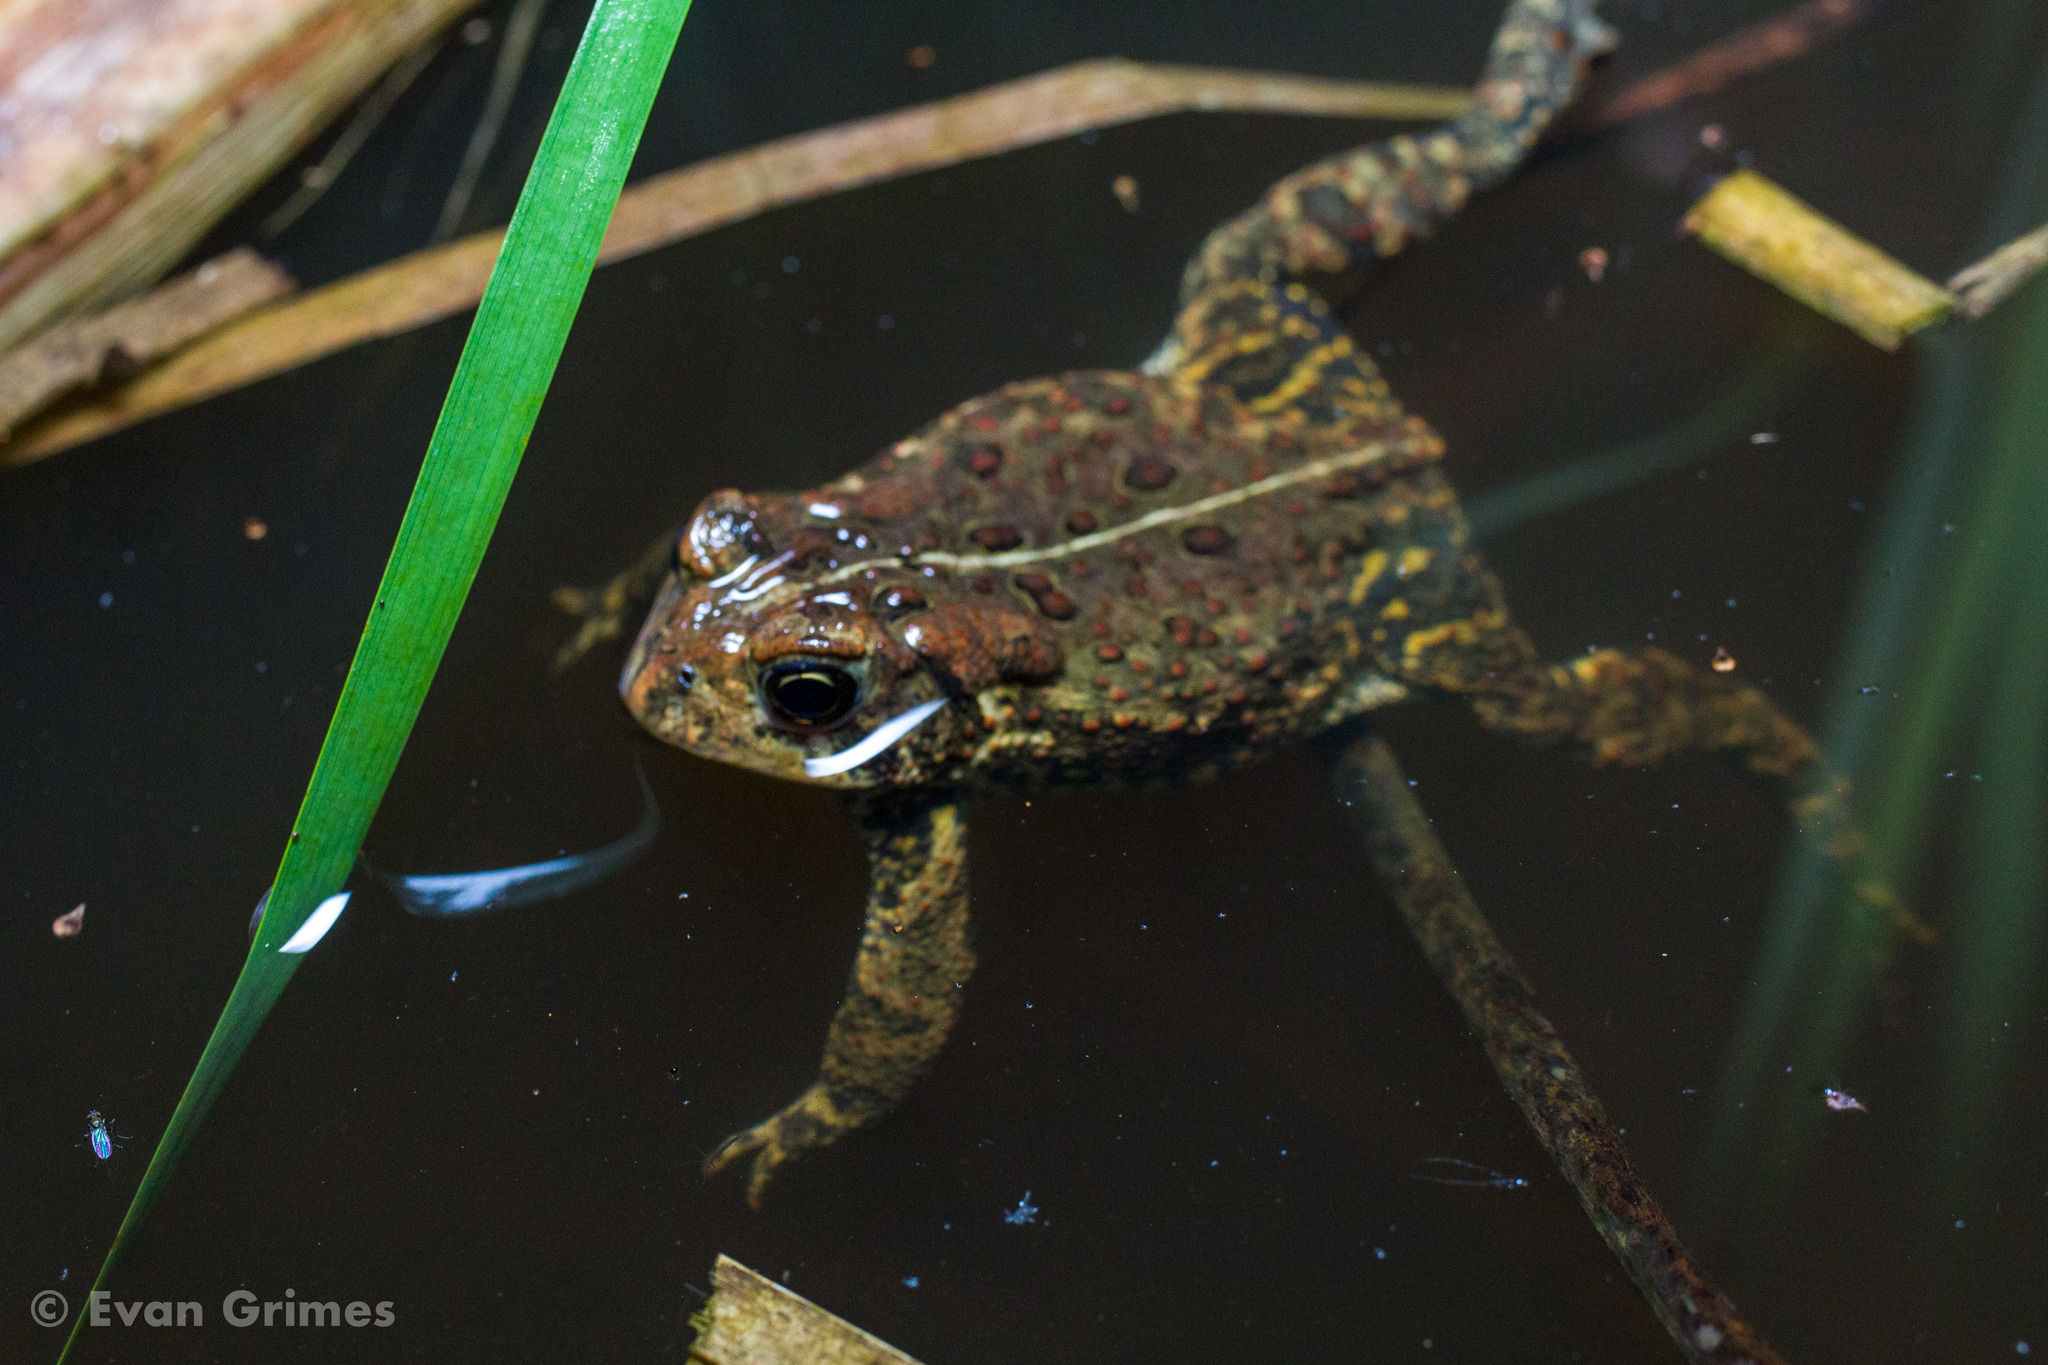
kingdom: Animalia
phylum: Chordata
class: Amphibia
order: Anura
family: Bufonidae
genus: Anaxyrus
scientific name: Anaxyrus americanus
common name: American toad
